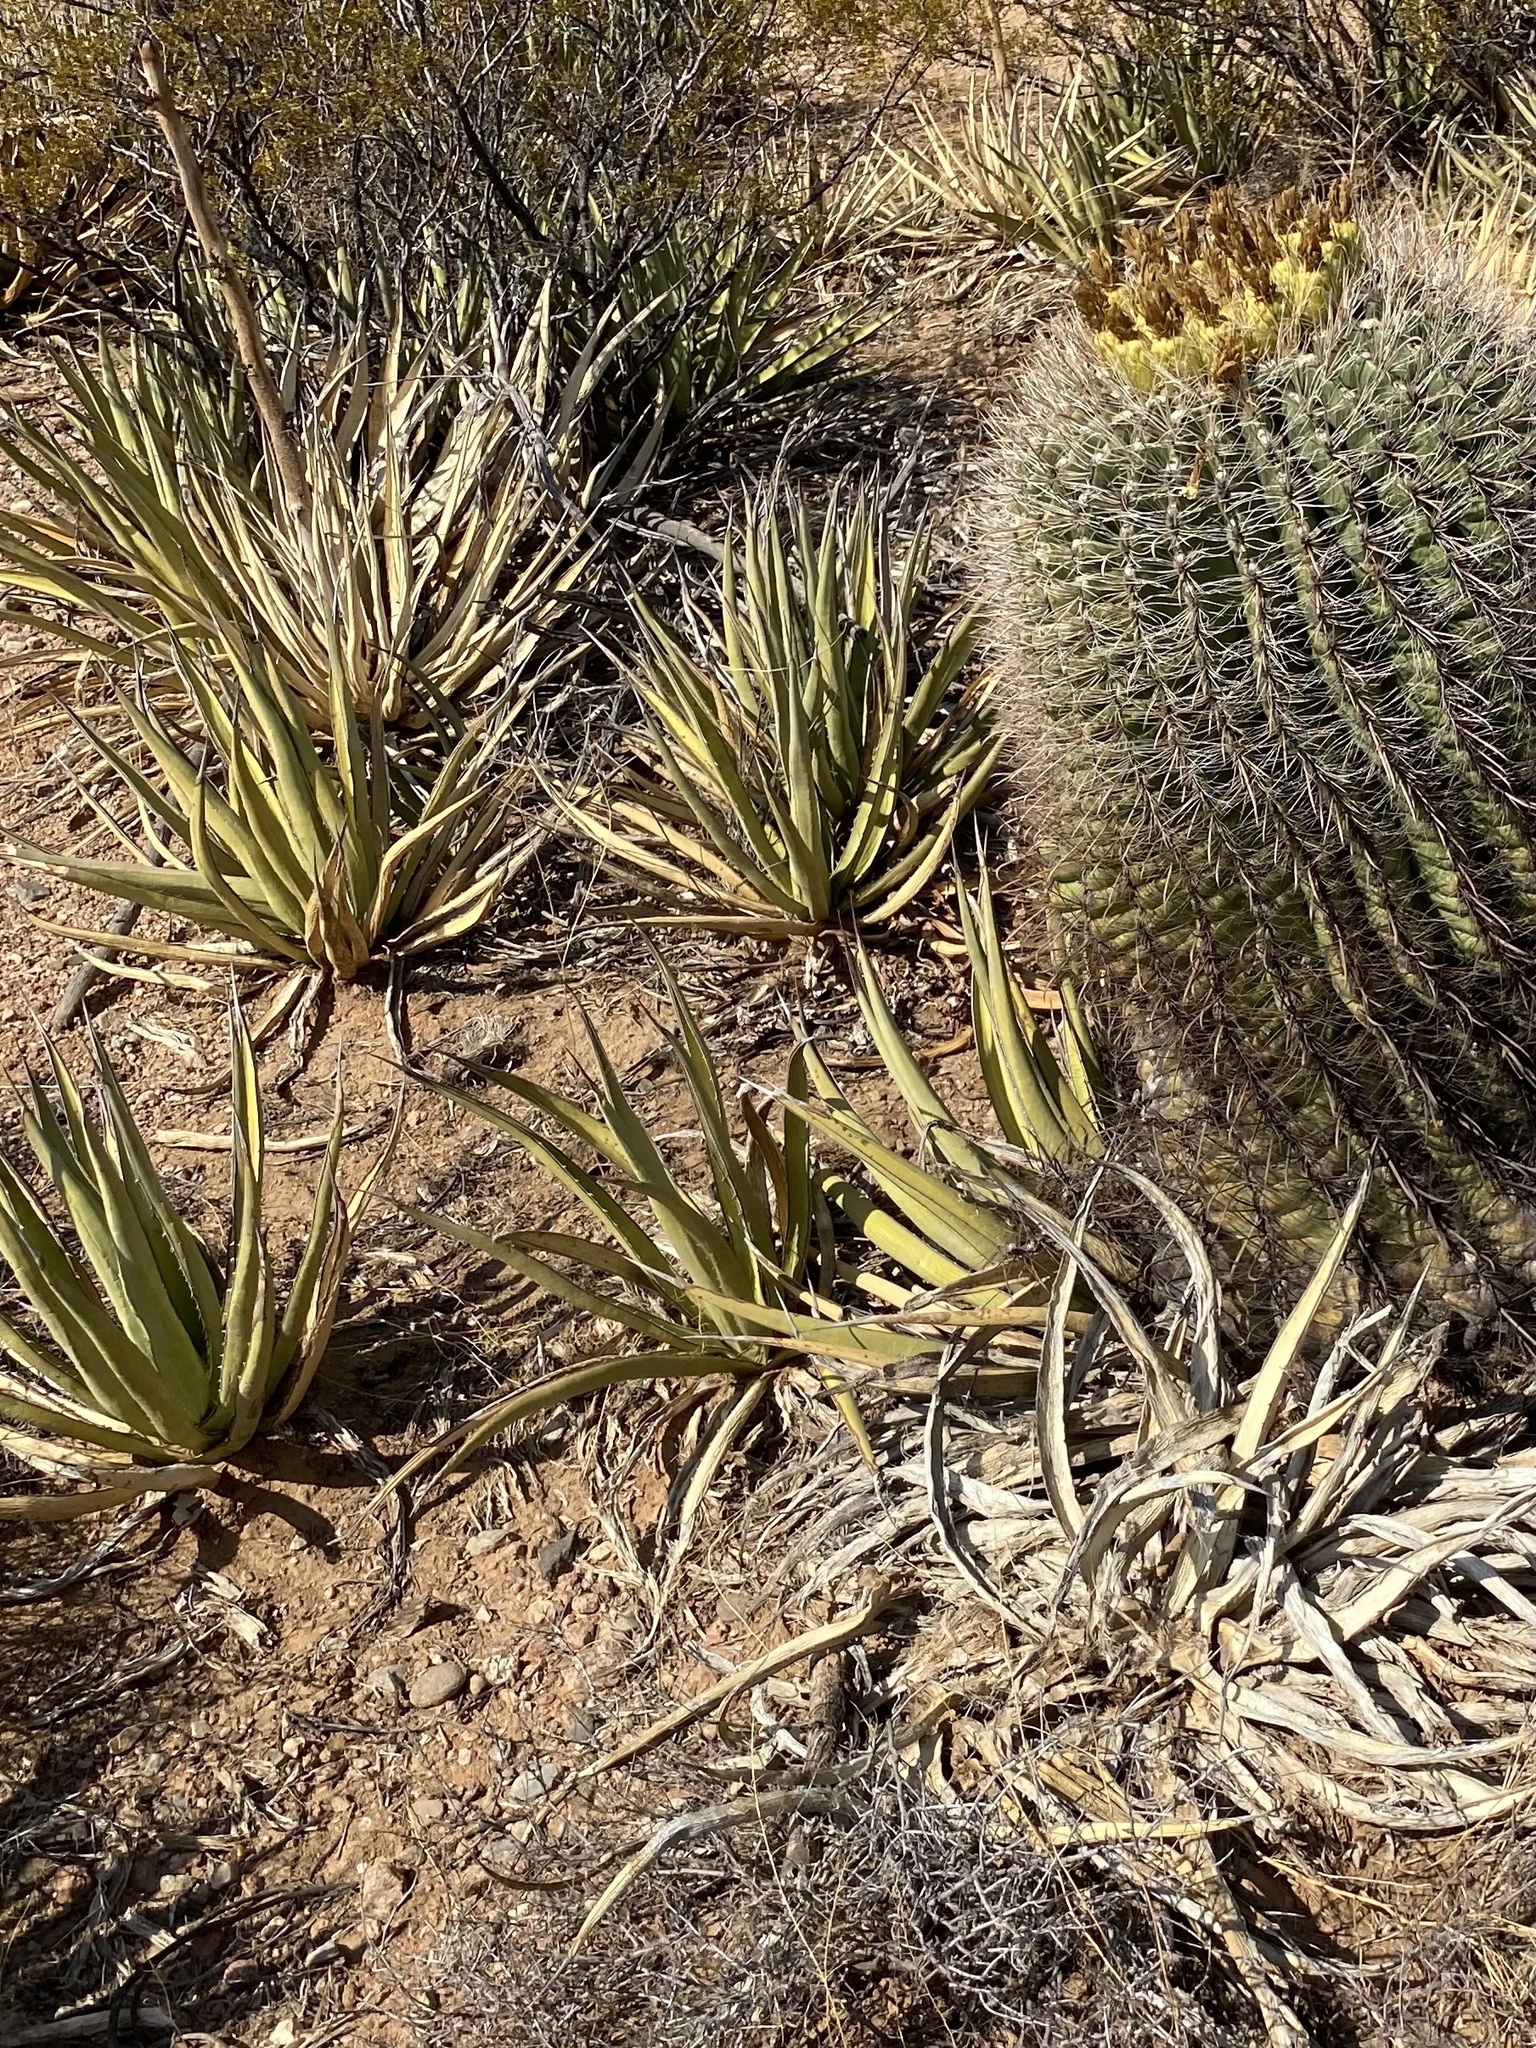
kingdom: Plantae
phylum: Tracheophyta
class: Liliopsida
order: Asparagales
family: Asparagaceae
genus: Agave
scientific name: Agave lechuguilla
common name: Lecheguilla agave
